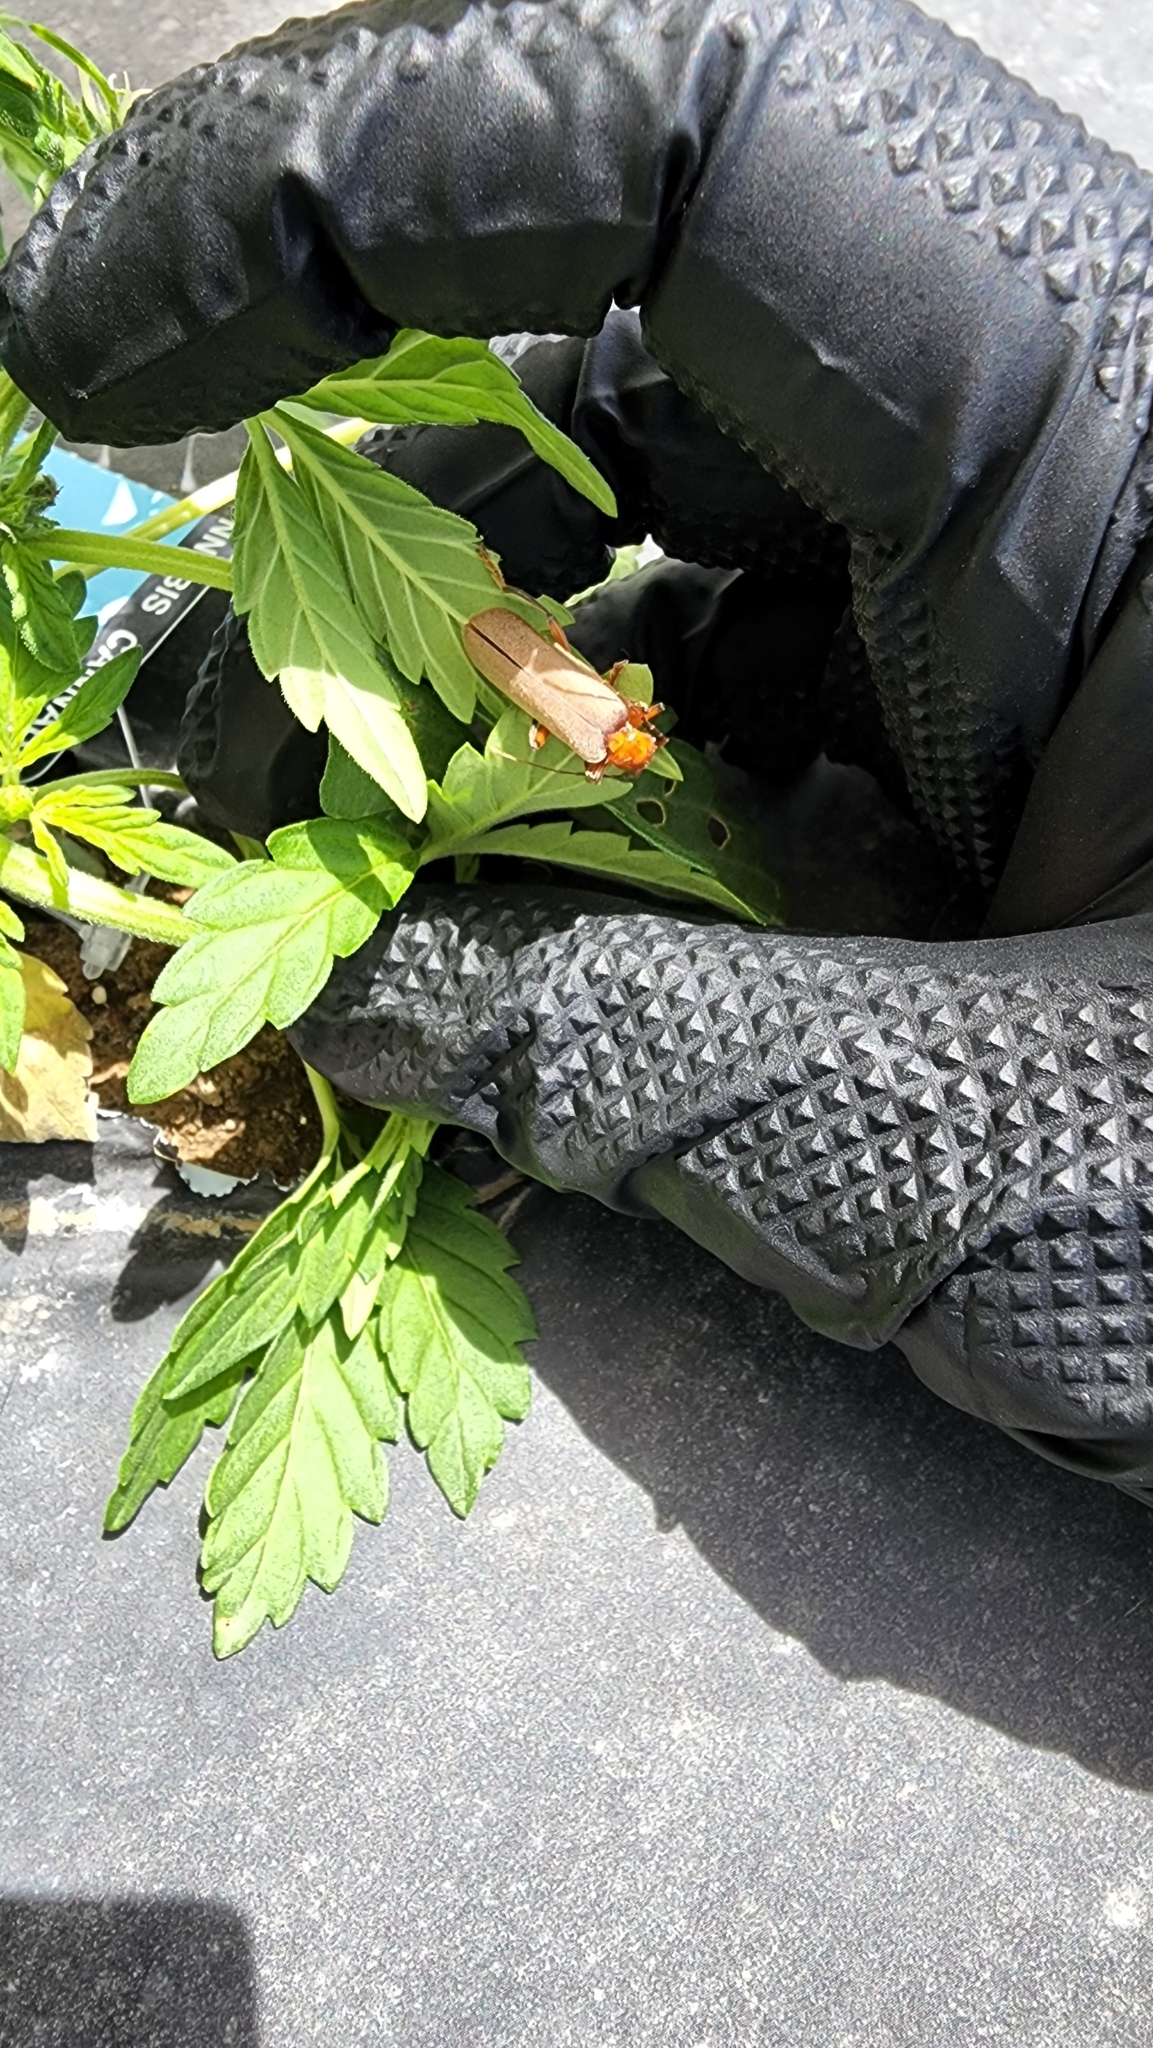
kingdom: Animalia
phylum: Arthropoda
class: Insecta
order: Coleoptera
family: Cantharidae
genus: Pacificanthia
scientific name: Pacificanthia consors
